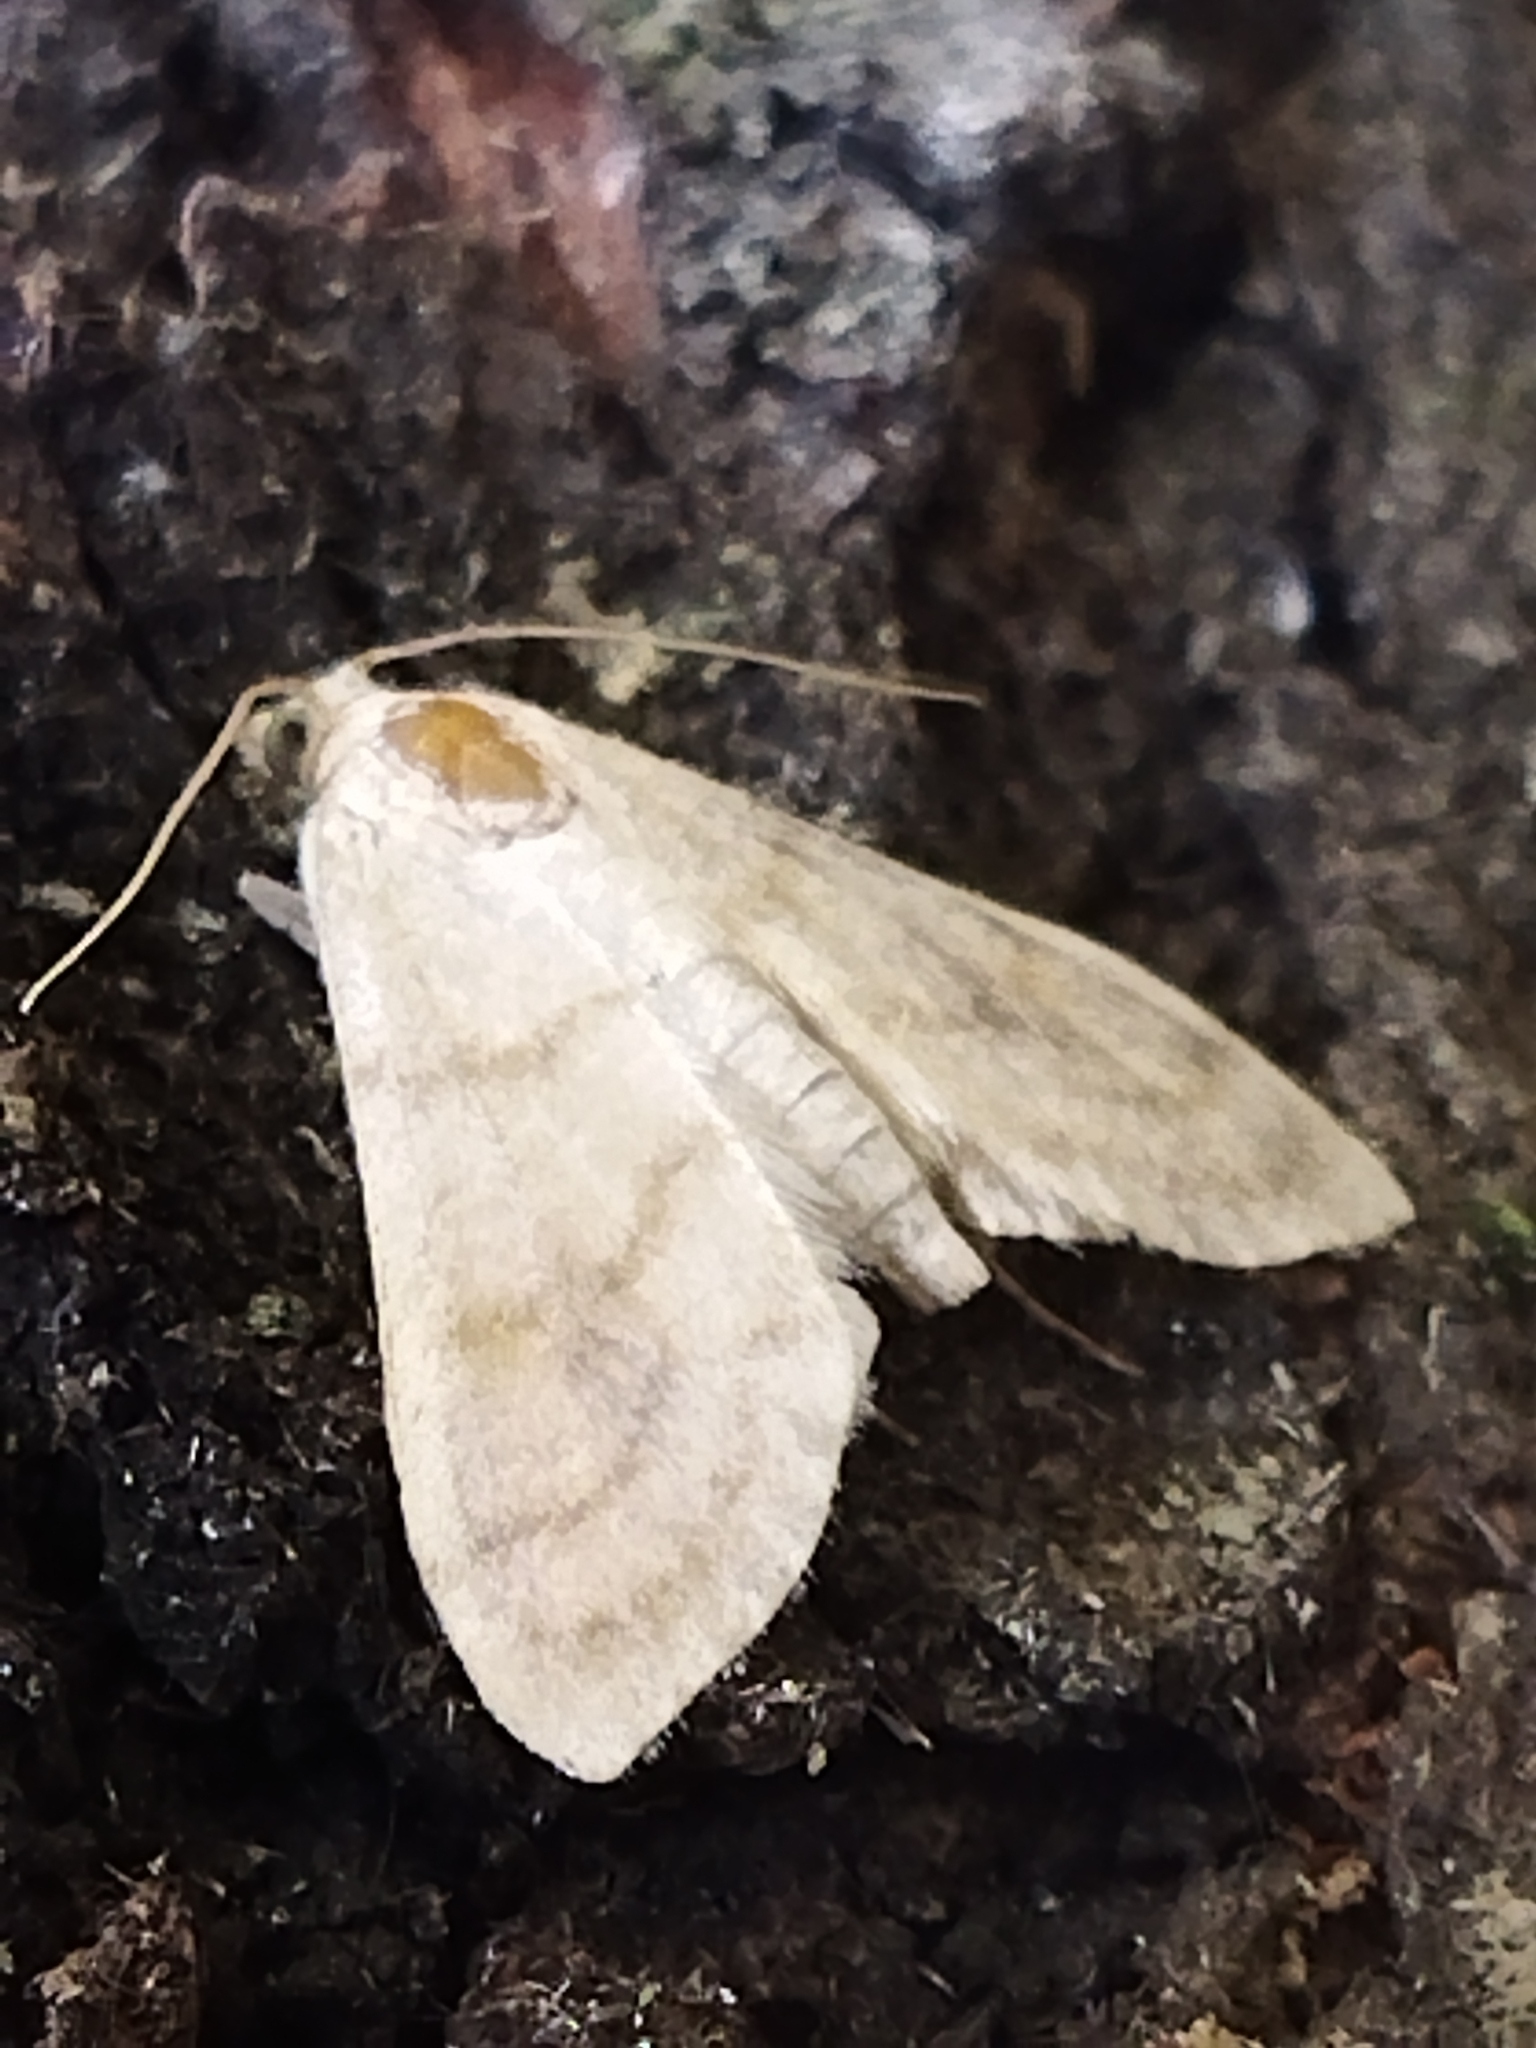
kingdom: Animalia
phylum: Arthropoda
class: Insecta
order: Lepidoptera
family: Crambidae
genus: Paracorsia
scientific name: Paracorsia repandalis
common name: Mullein moth
